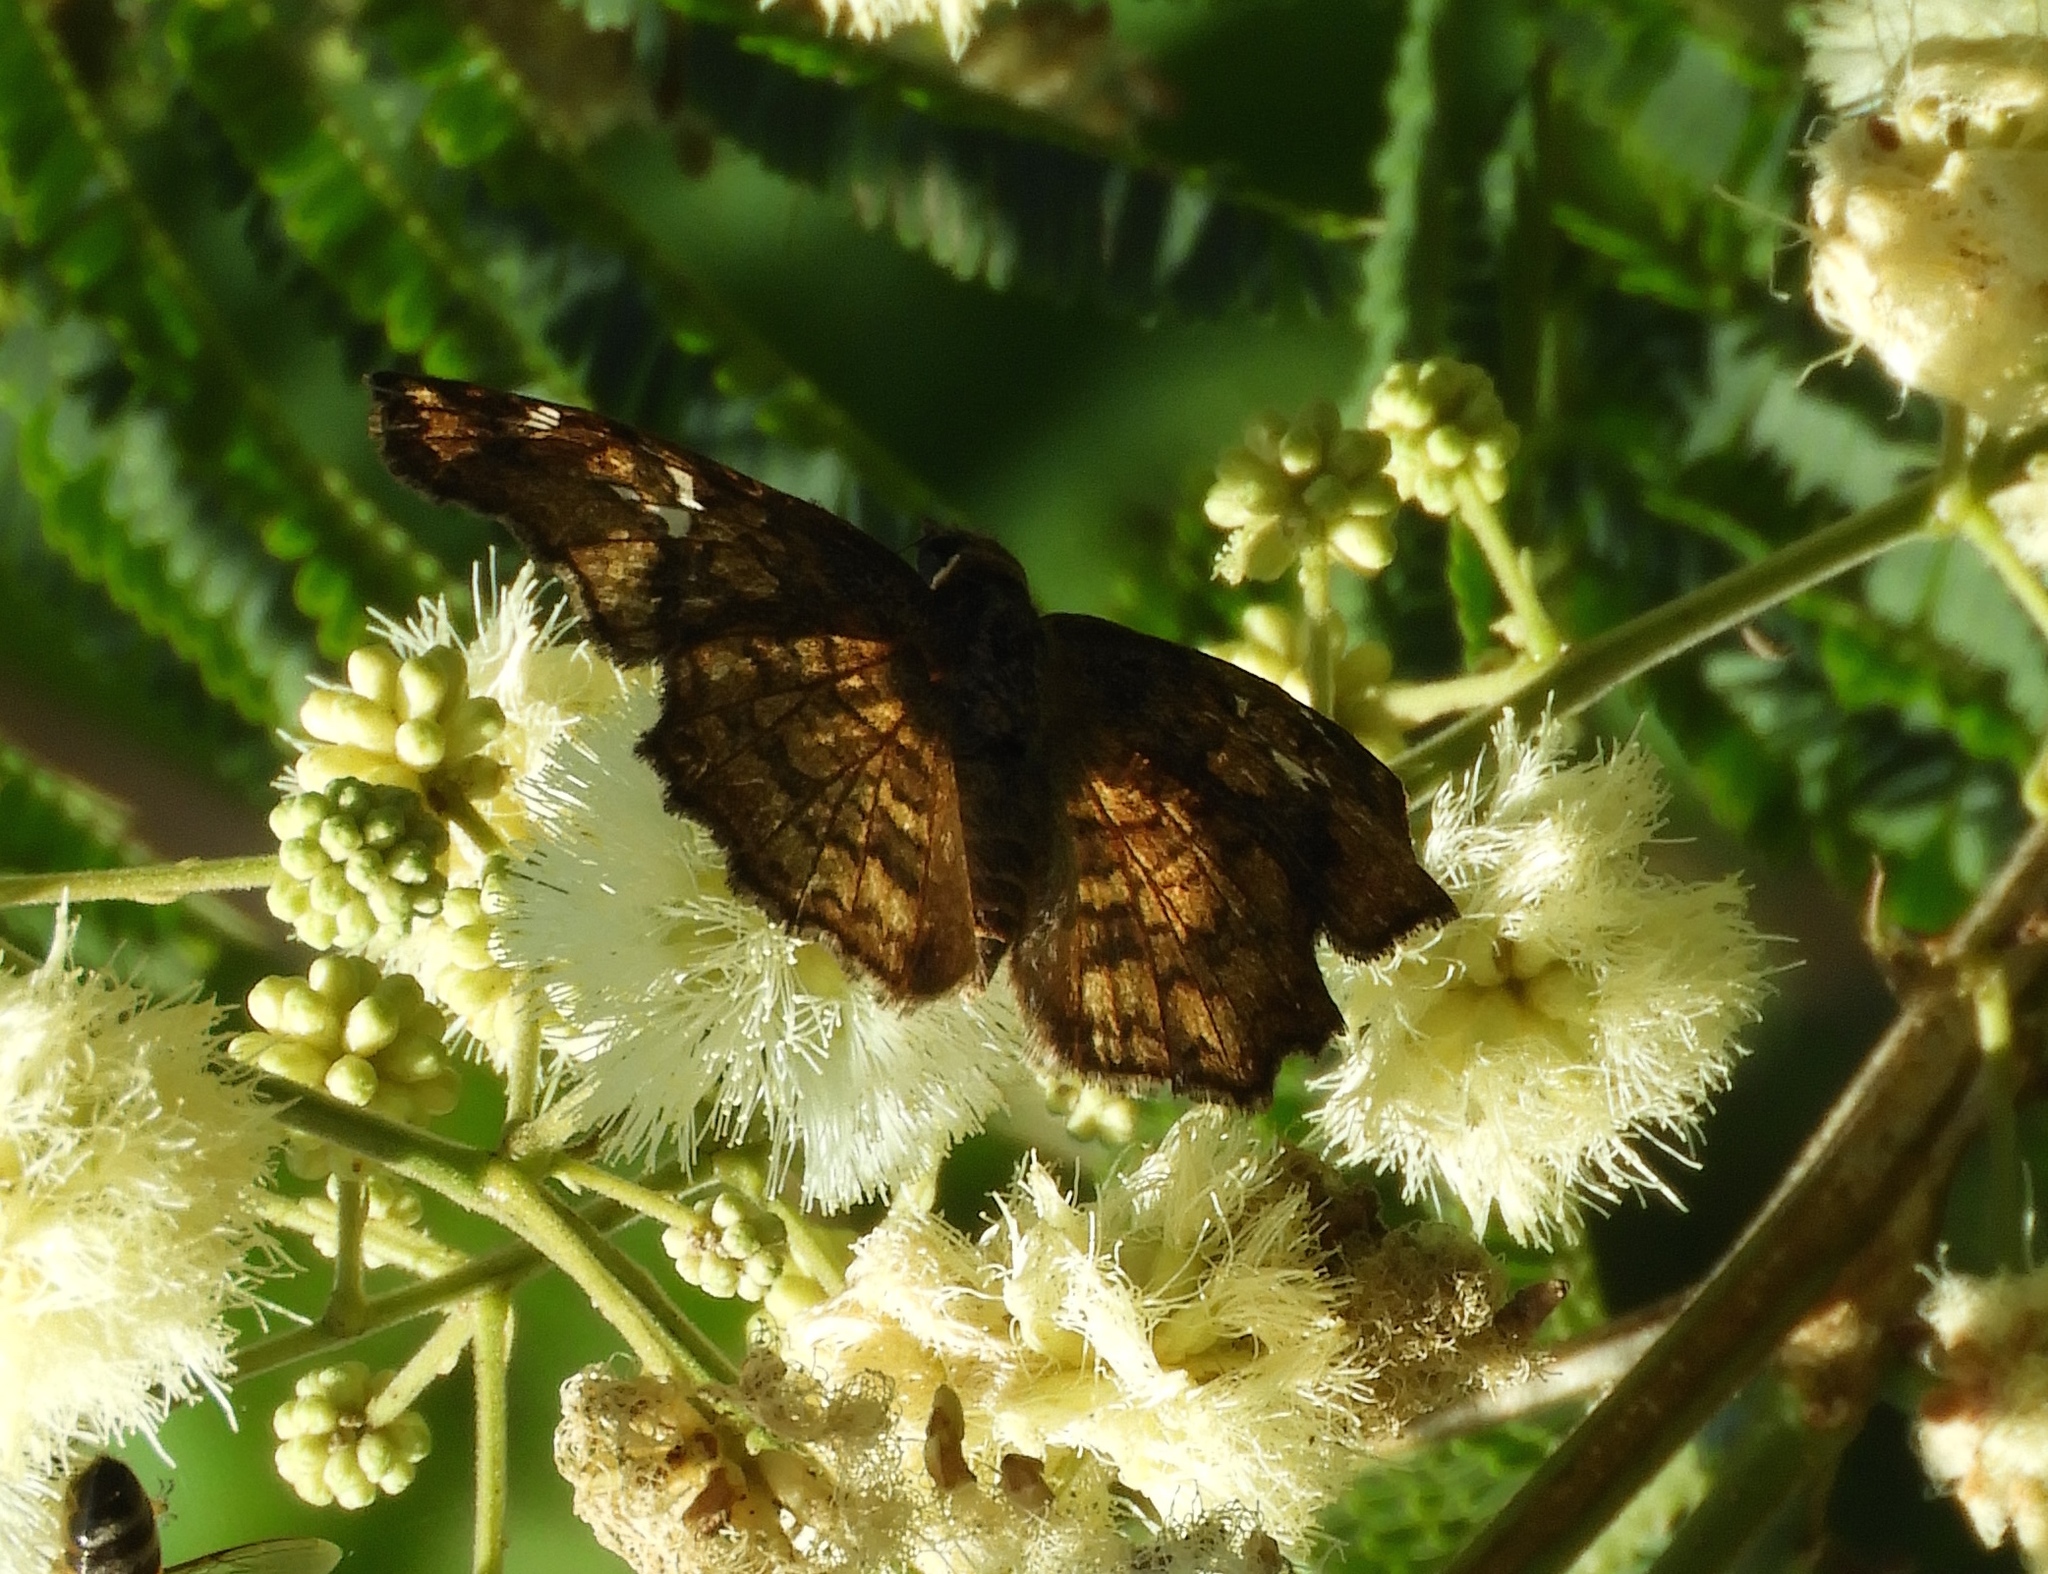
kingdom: Animalia
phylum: Arthropoda
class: Insecta
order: Lepidoptera
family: Hesperiidae
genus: Antigonus
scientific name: Antigonus erosus
